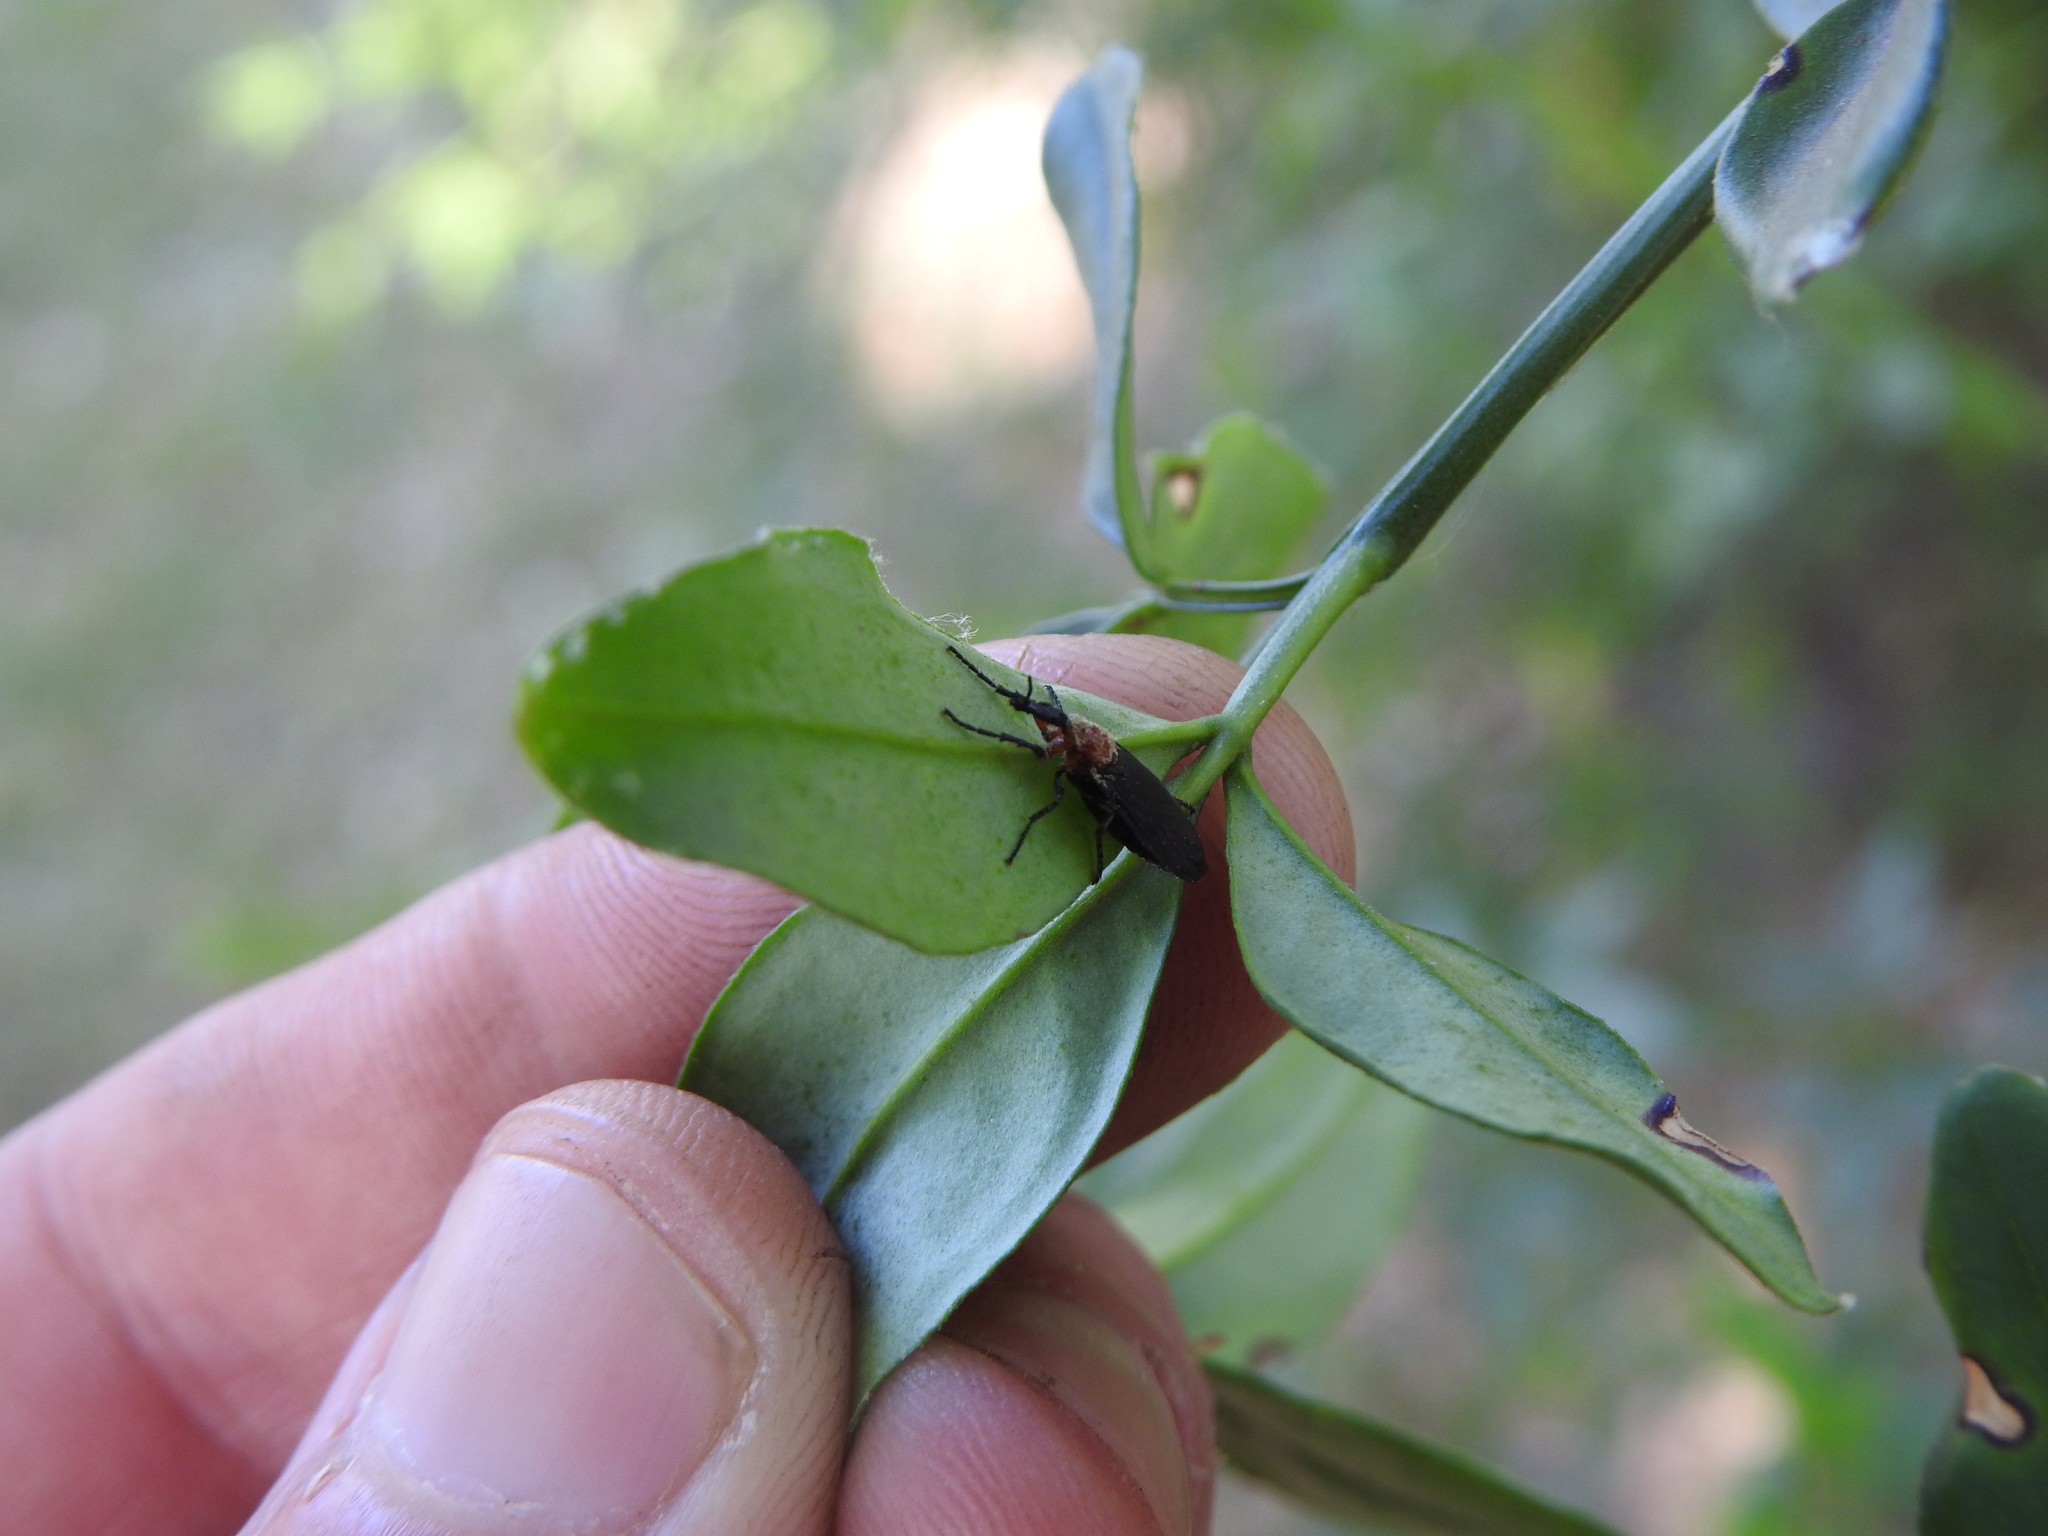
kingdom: Animalia
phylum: Arthropoda
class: Insecta
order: Diptera
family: Bibionidae
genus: Dilophus
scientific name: Dilophus pectoralis
